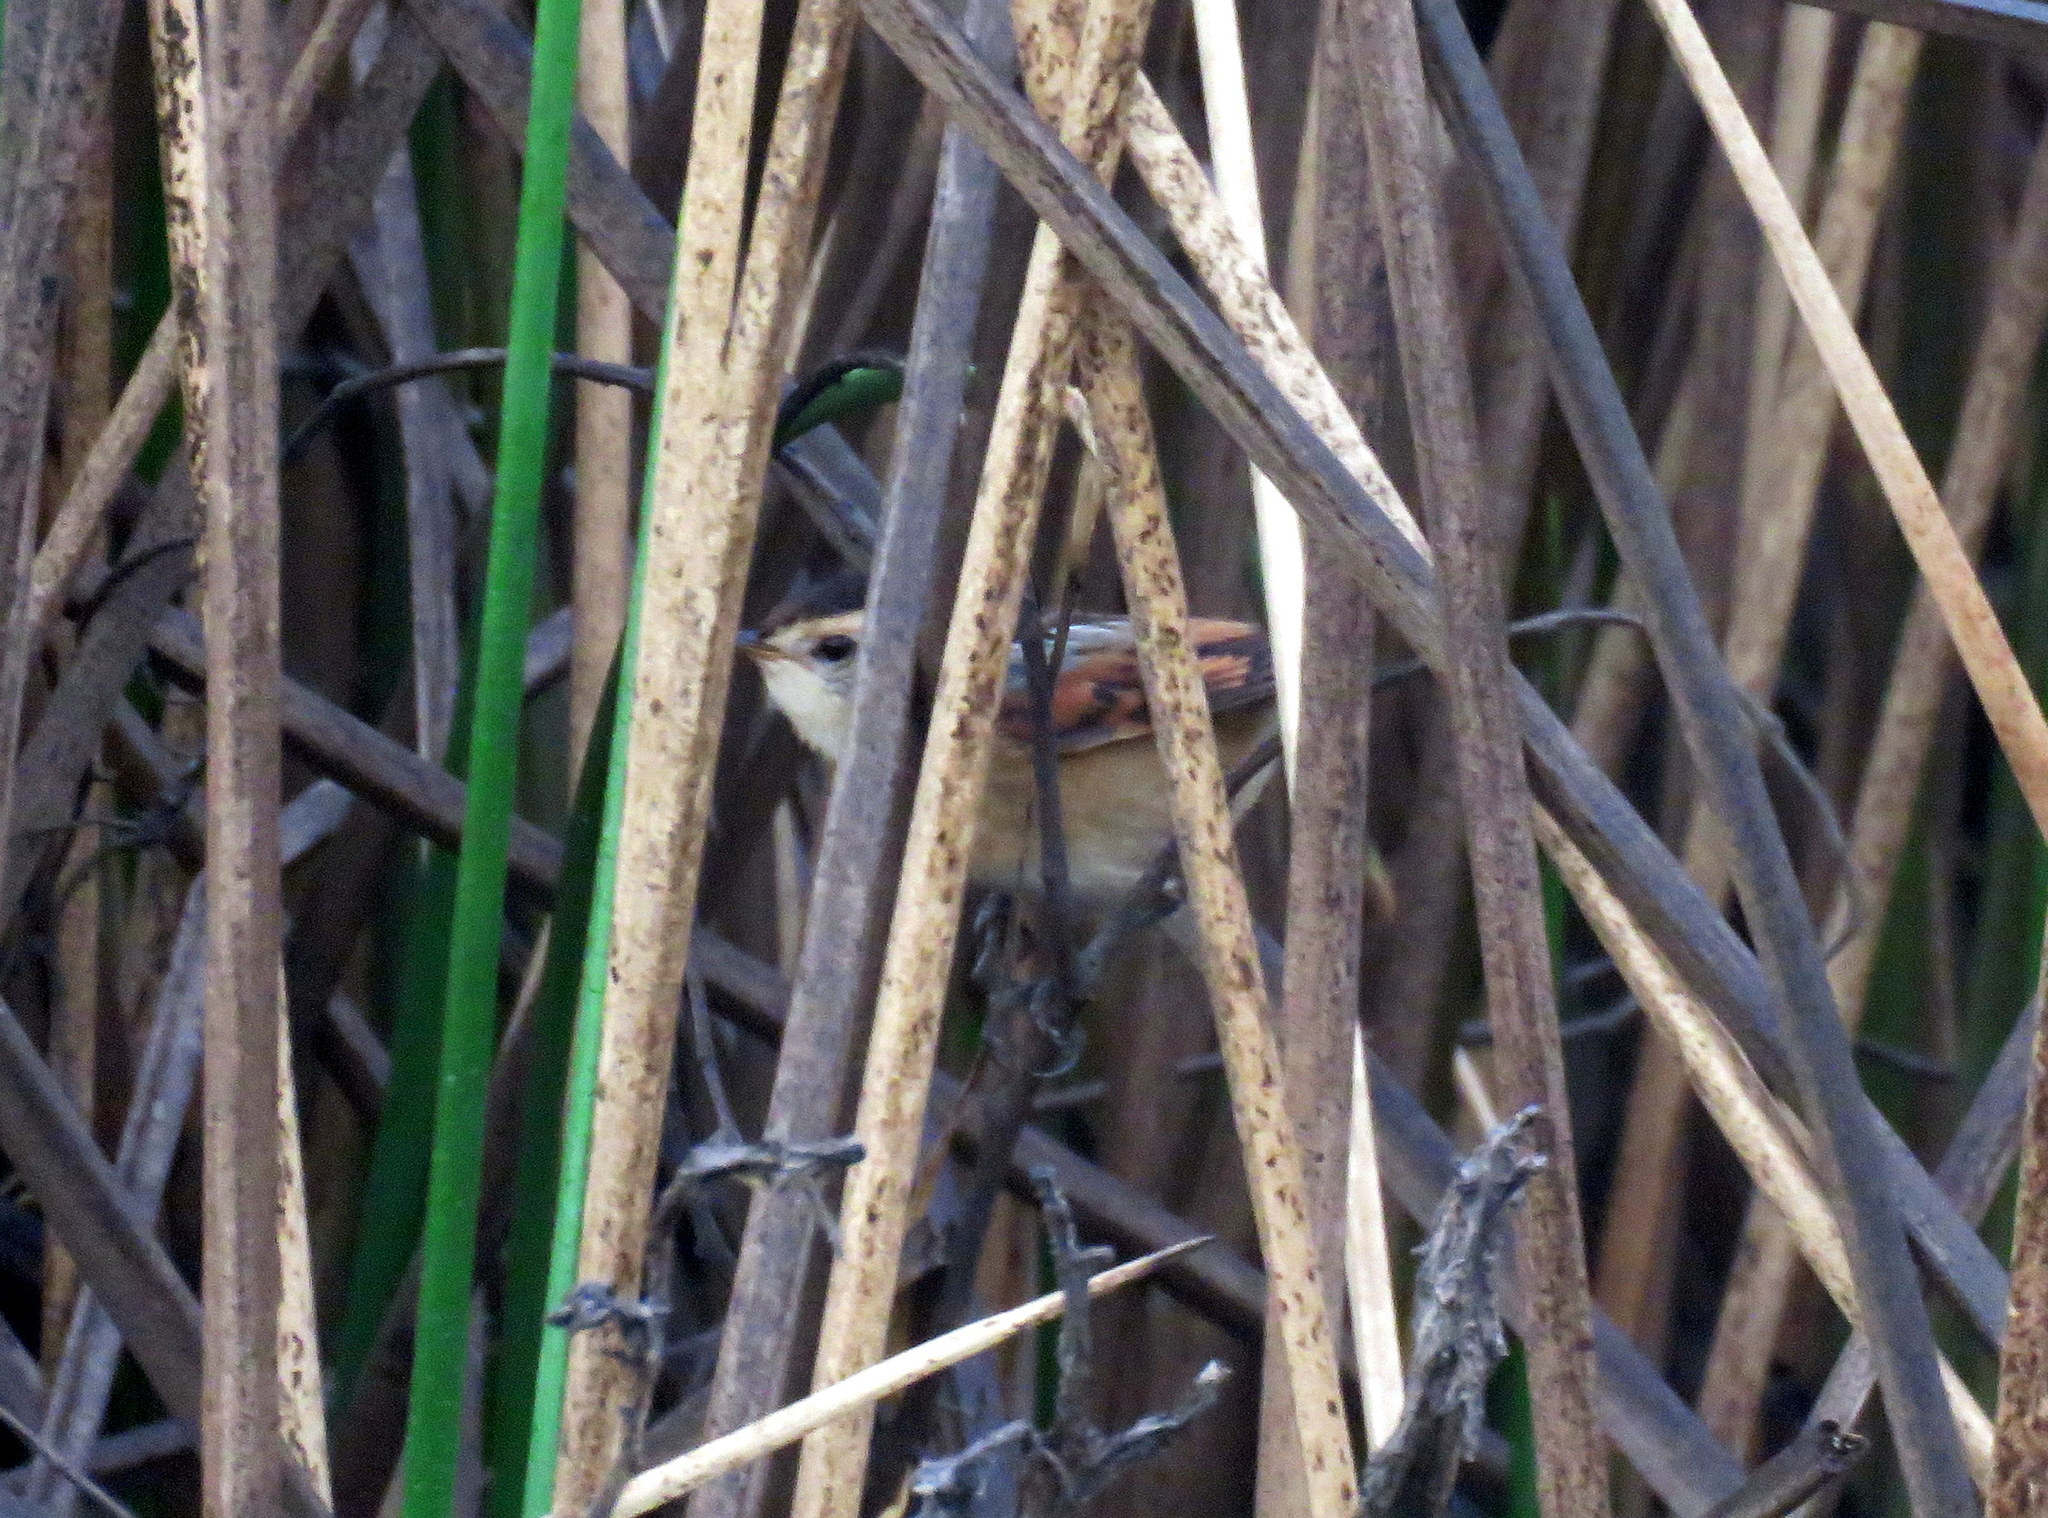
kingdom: Animalia
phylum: Chordata
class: Aves
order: Passeriformes
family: Furnariidae
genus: Phleocryptes
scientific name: Phleocryptes melanops
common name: Wren-like rushbird
